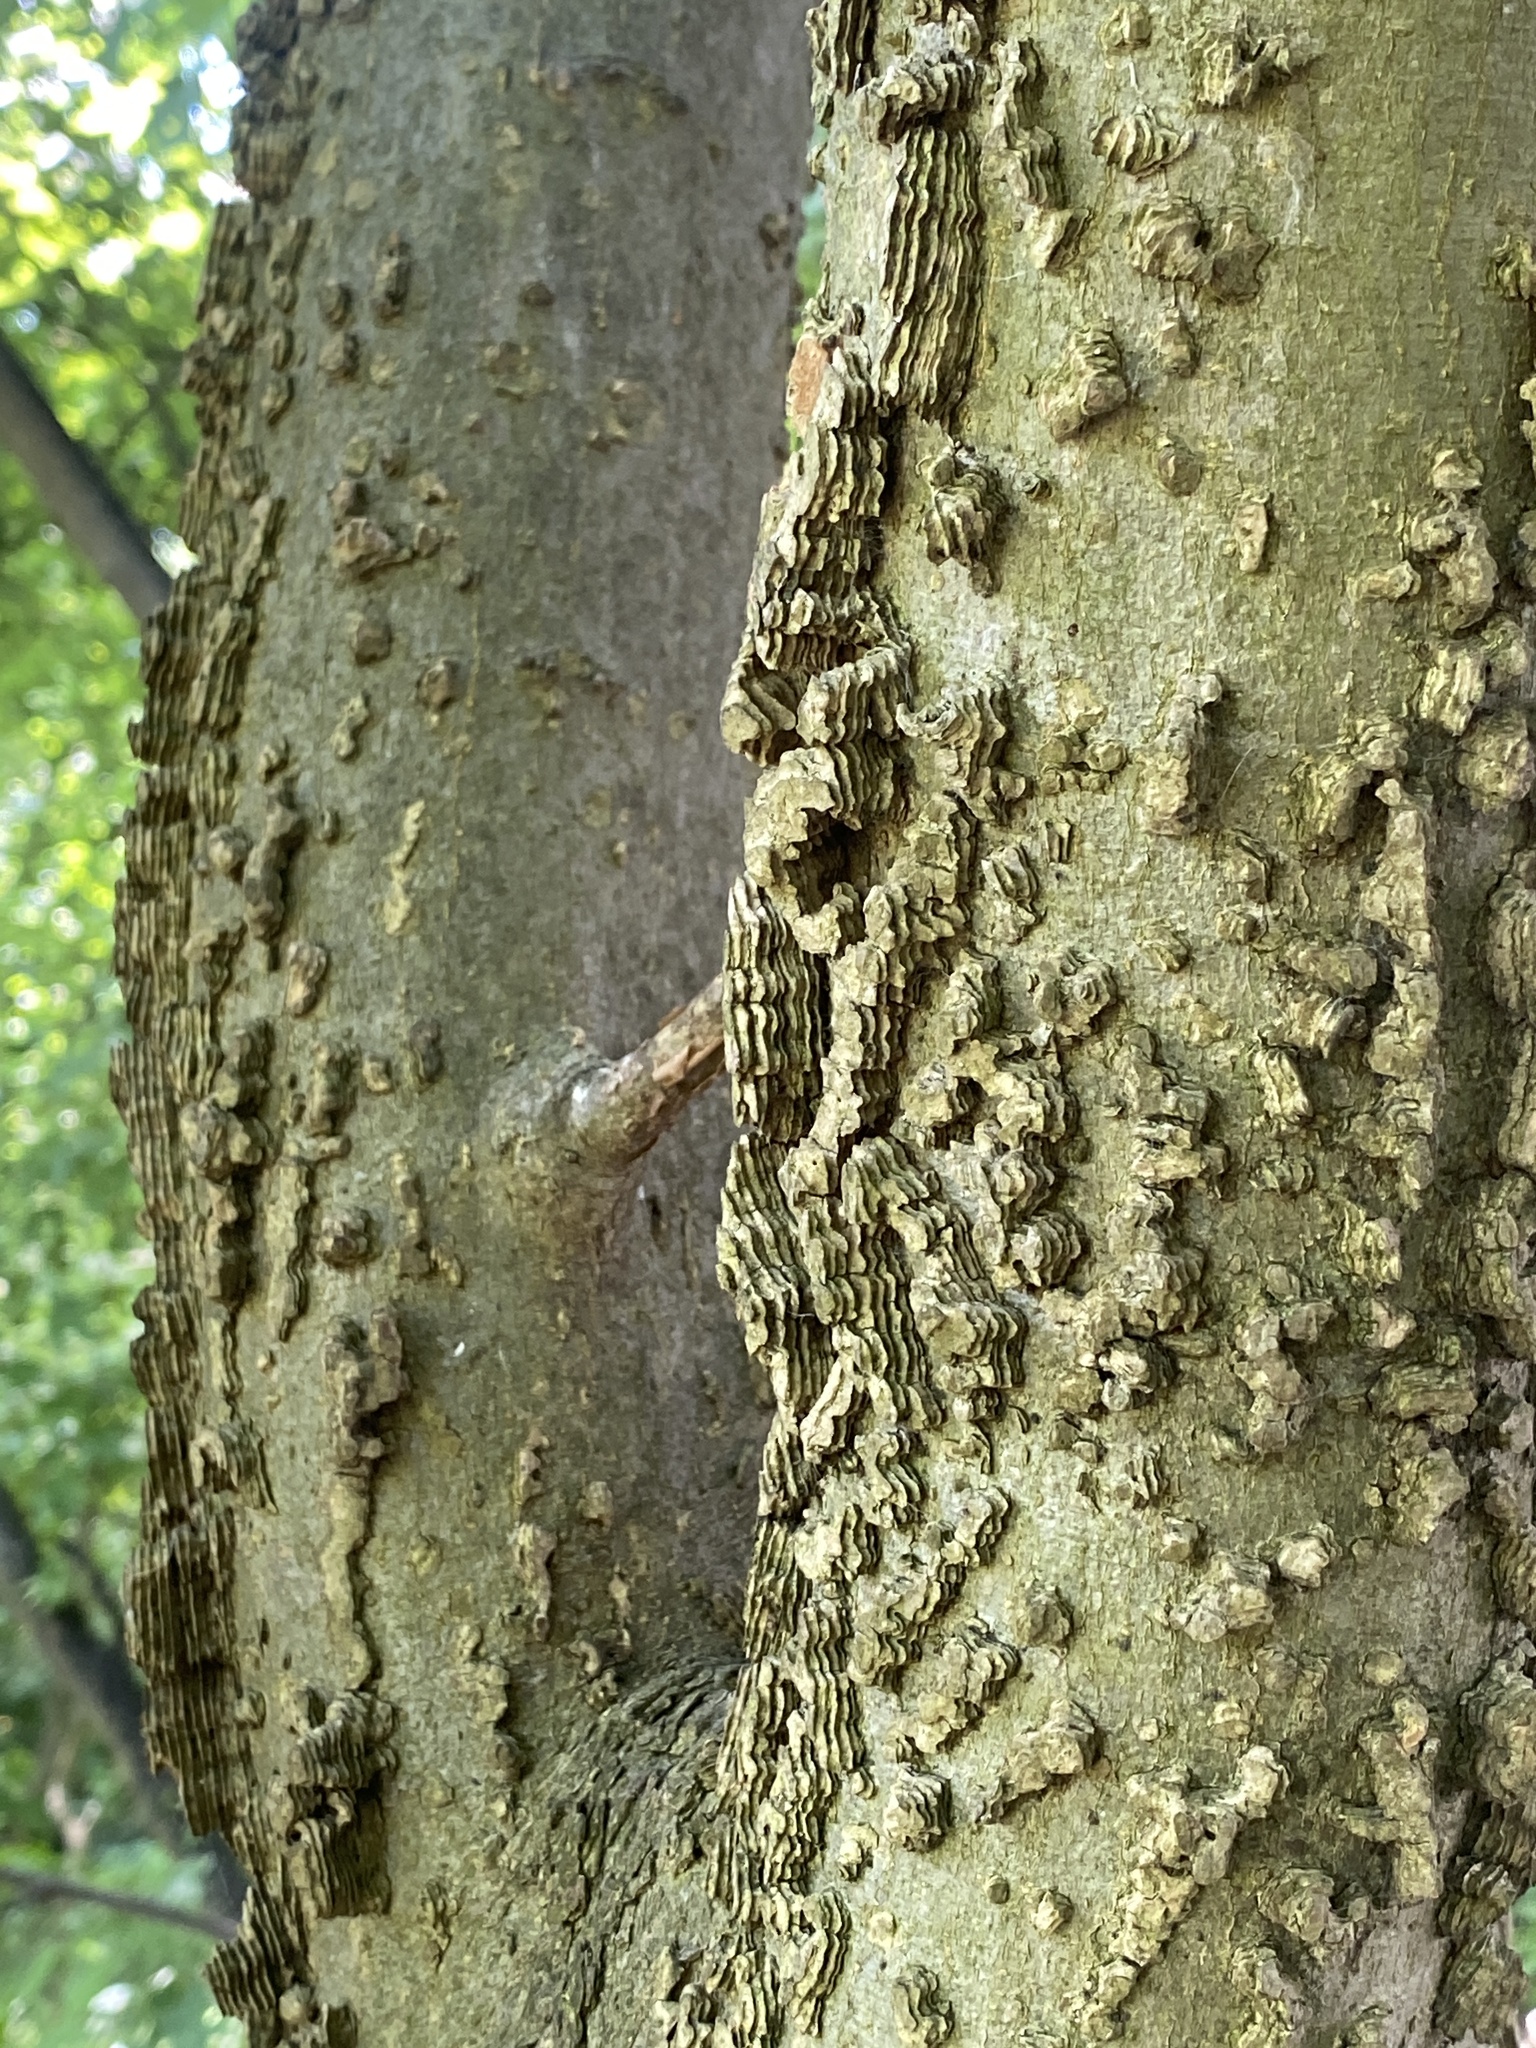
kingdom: Plantae
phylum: Tracheophyta
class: Magnoliopsida
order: Rosales
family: Cannabaceae
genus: Celtis
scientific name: Celtis occidentalis
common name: Common hackberry
